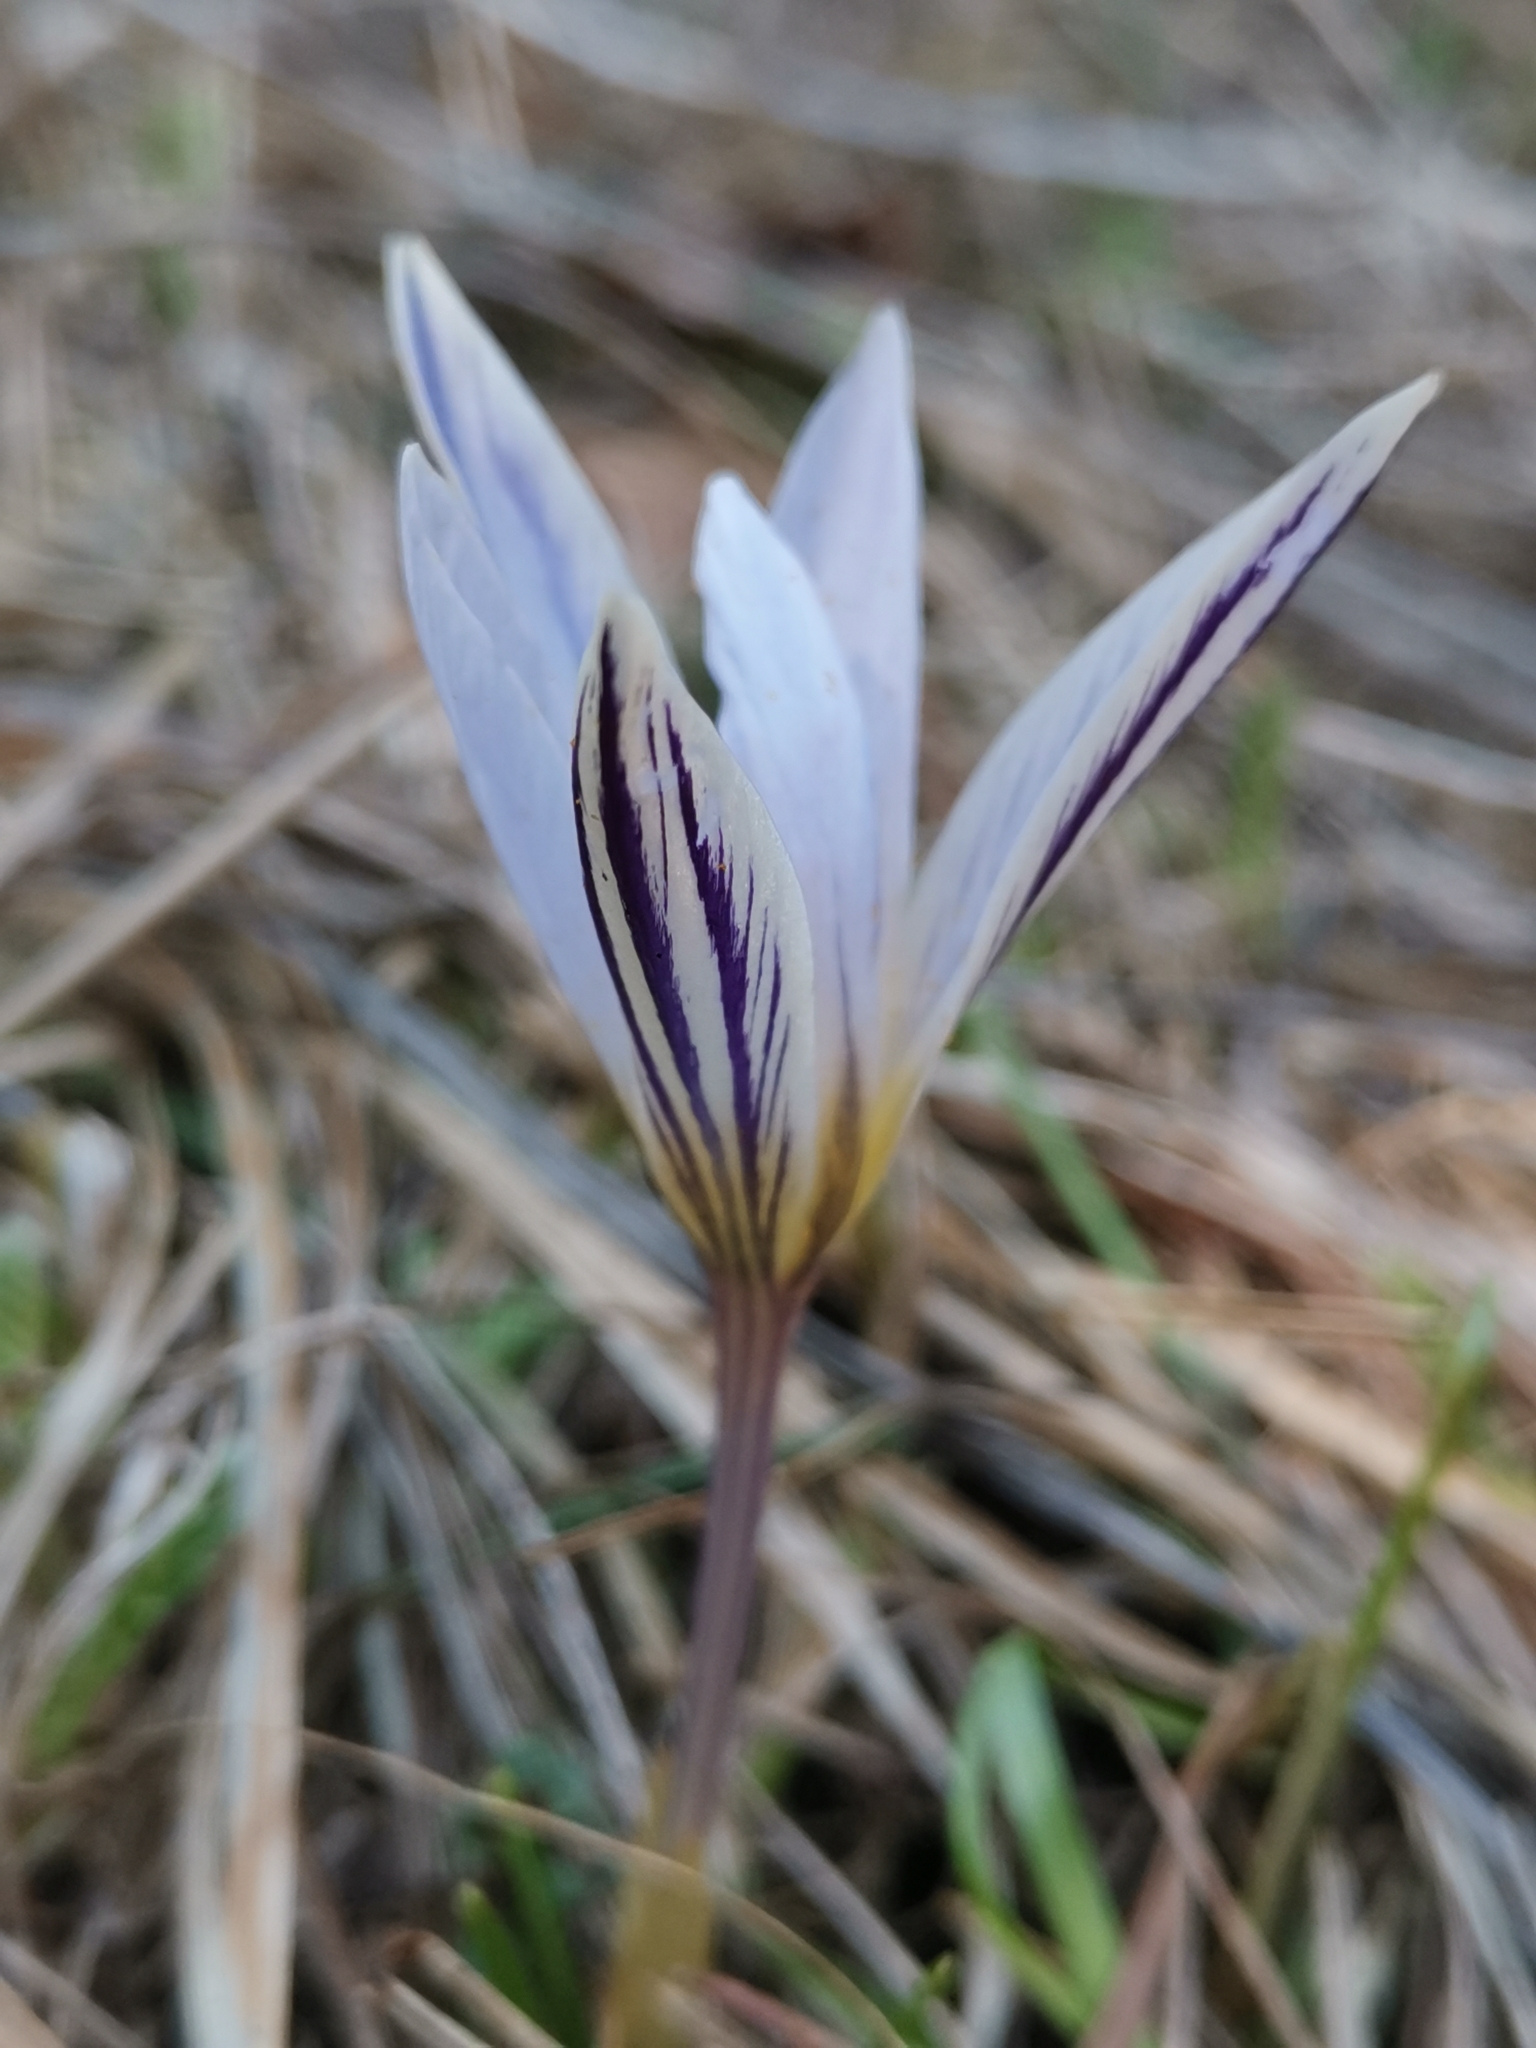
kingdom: Plantae
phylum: Tracheophyta
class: Liliopsida
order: Asparagales
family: Iridaceae
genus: Crocus
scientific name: Crocus variegatus
